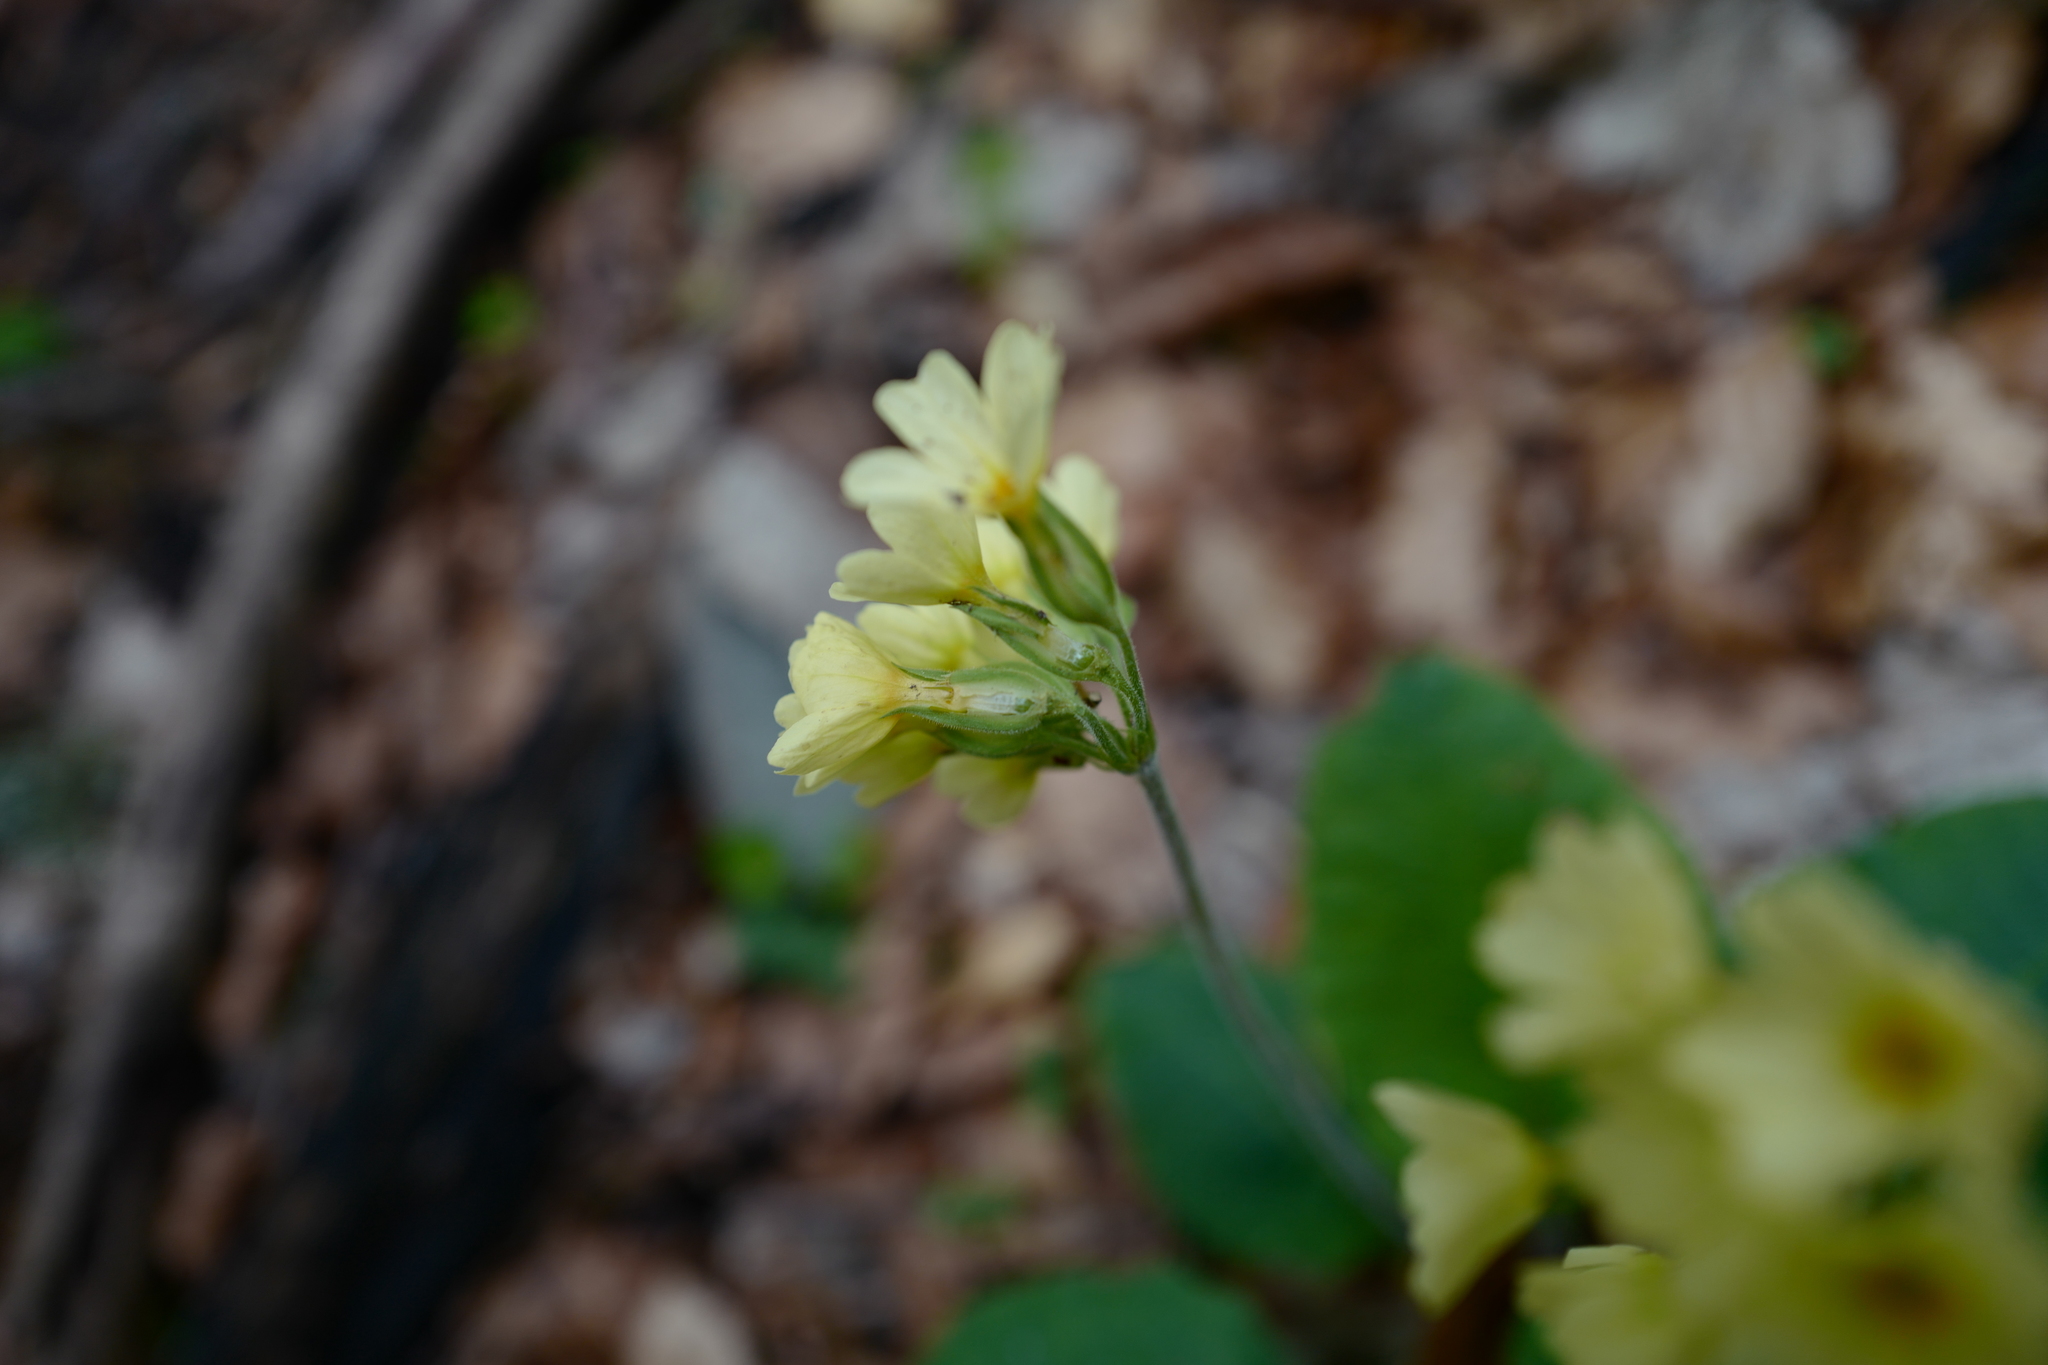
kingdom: Plantae
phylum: Tracheophyta
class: Magnoliopsida
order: Ericales
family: Primulaceae
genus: Primula
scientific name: Primula elatior
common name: Oxlip
